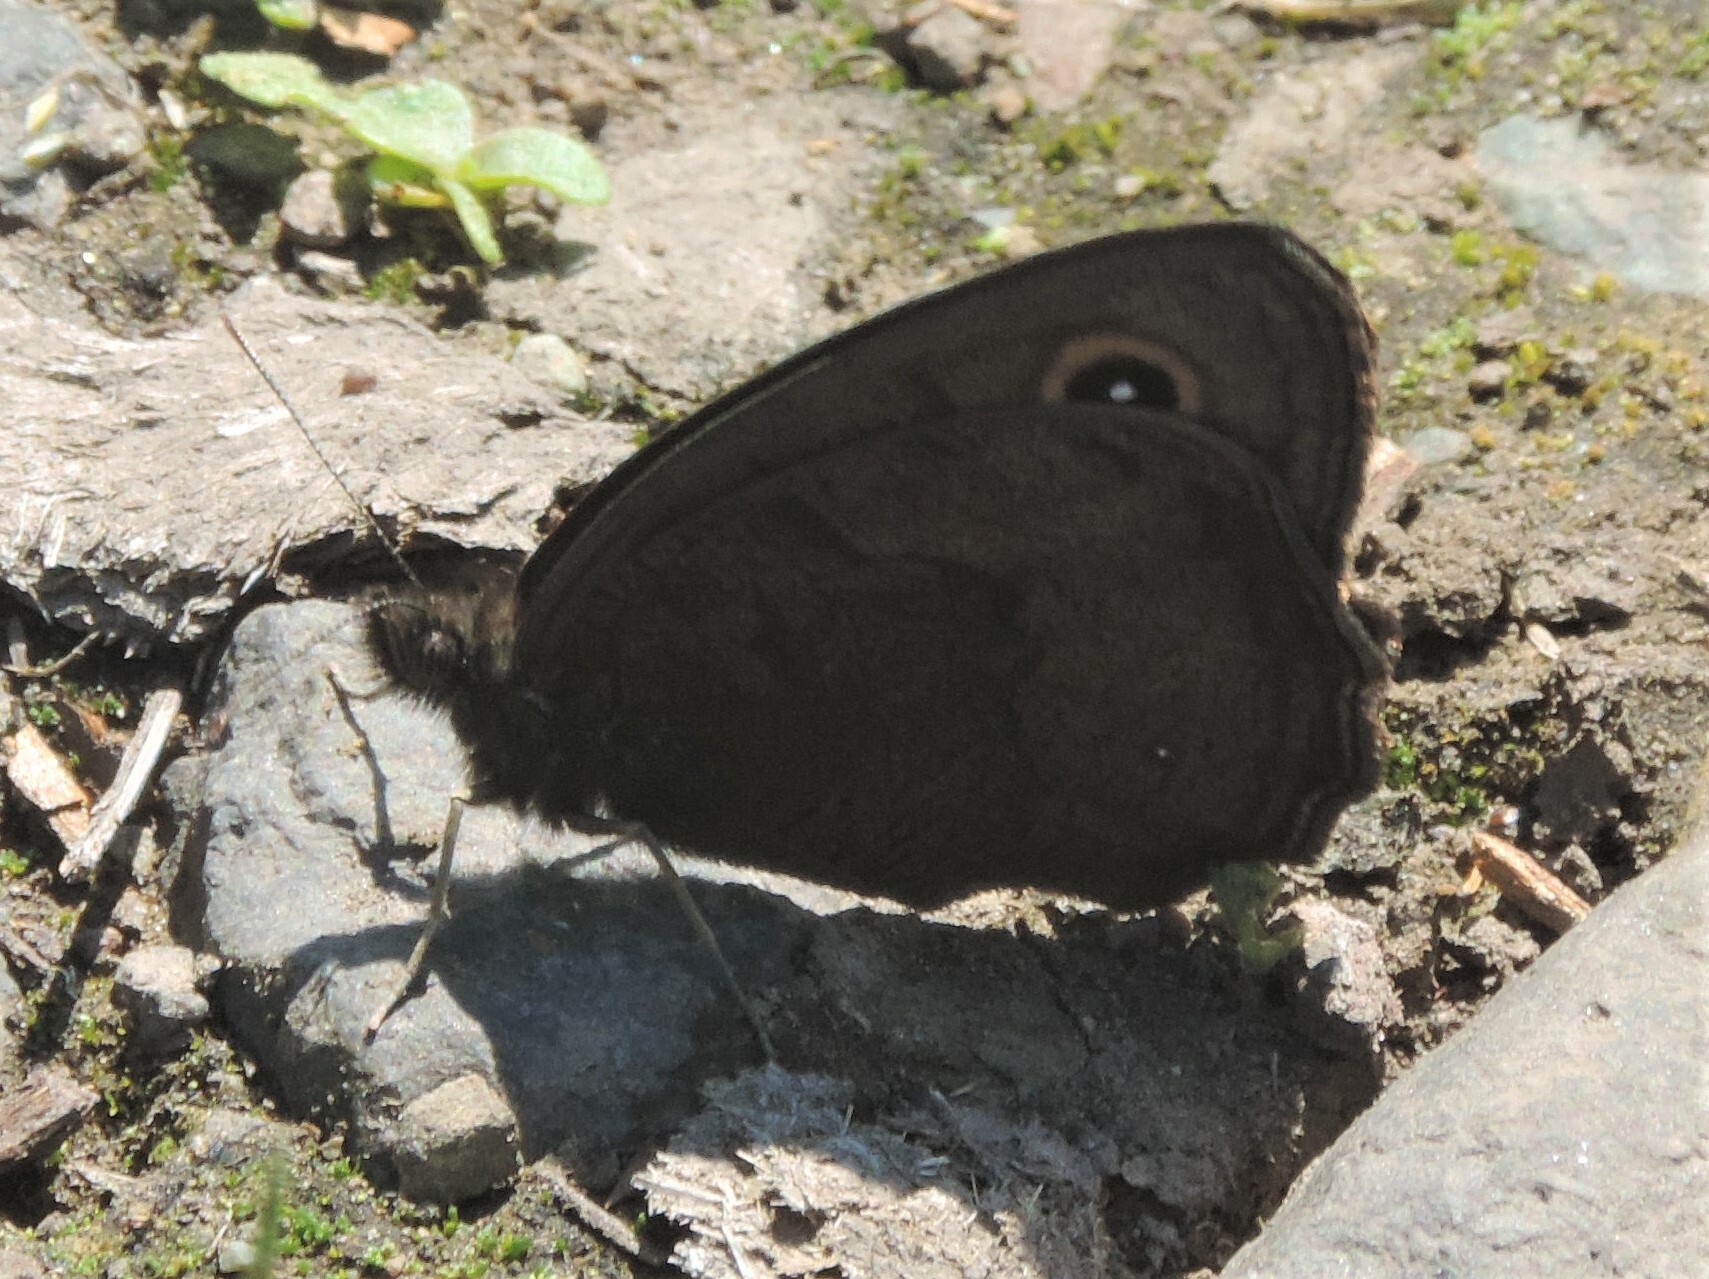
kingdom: Animalia
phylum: Arthropoda
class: Insecta
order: Lepidoptera
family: Nymphalidae
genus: Cercyonis
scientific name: Cercyonis pegala
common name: Common wood-nymph
